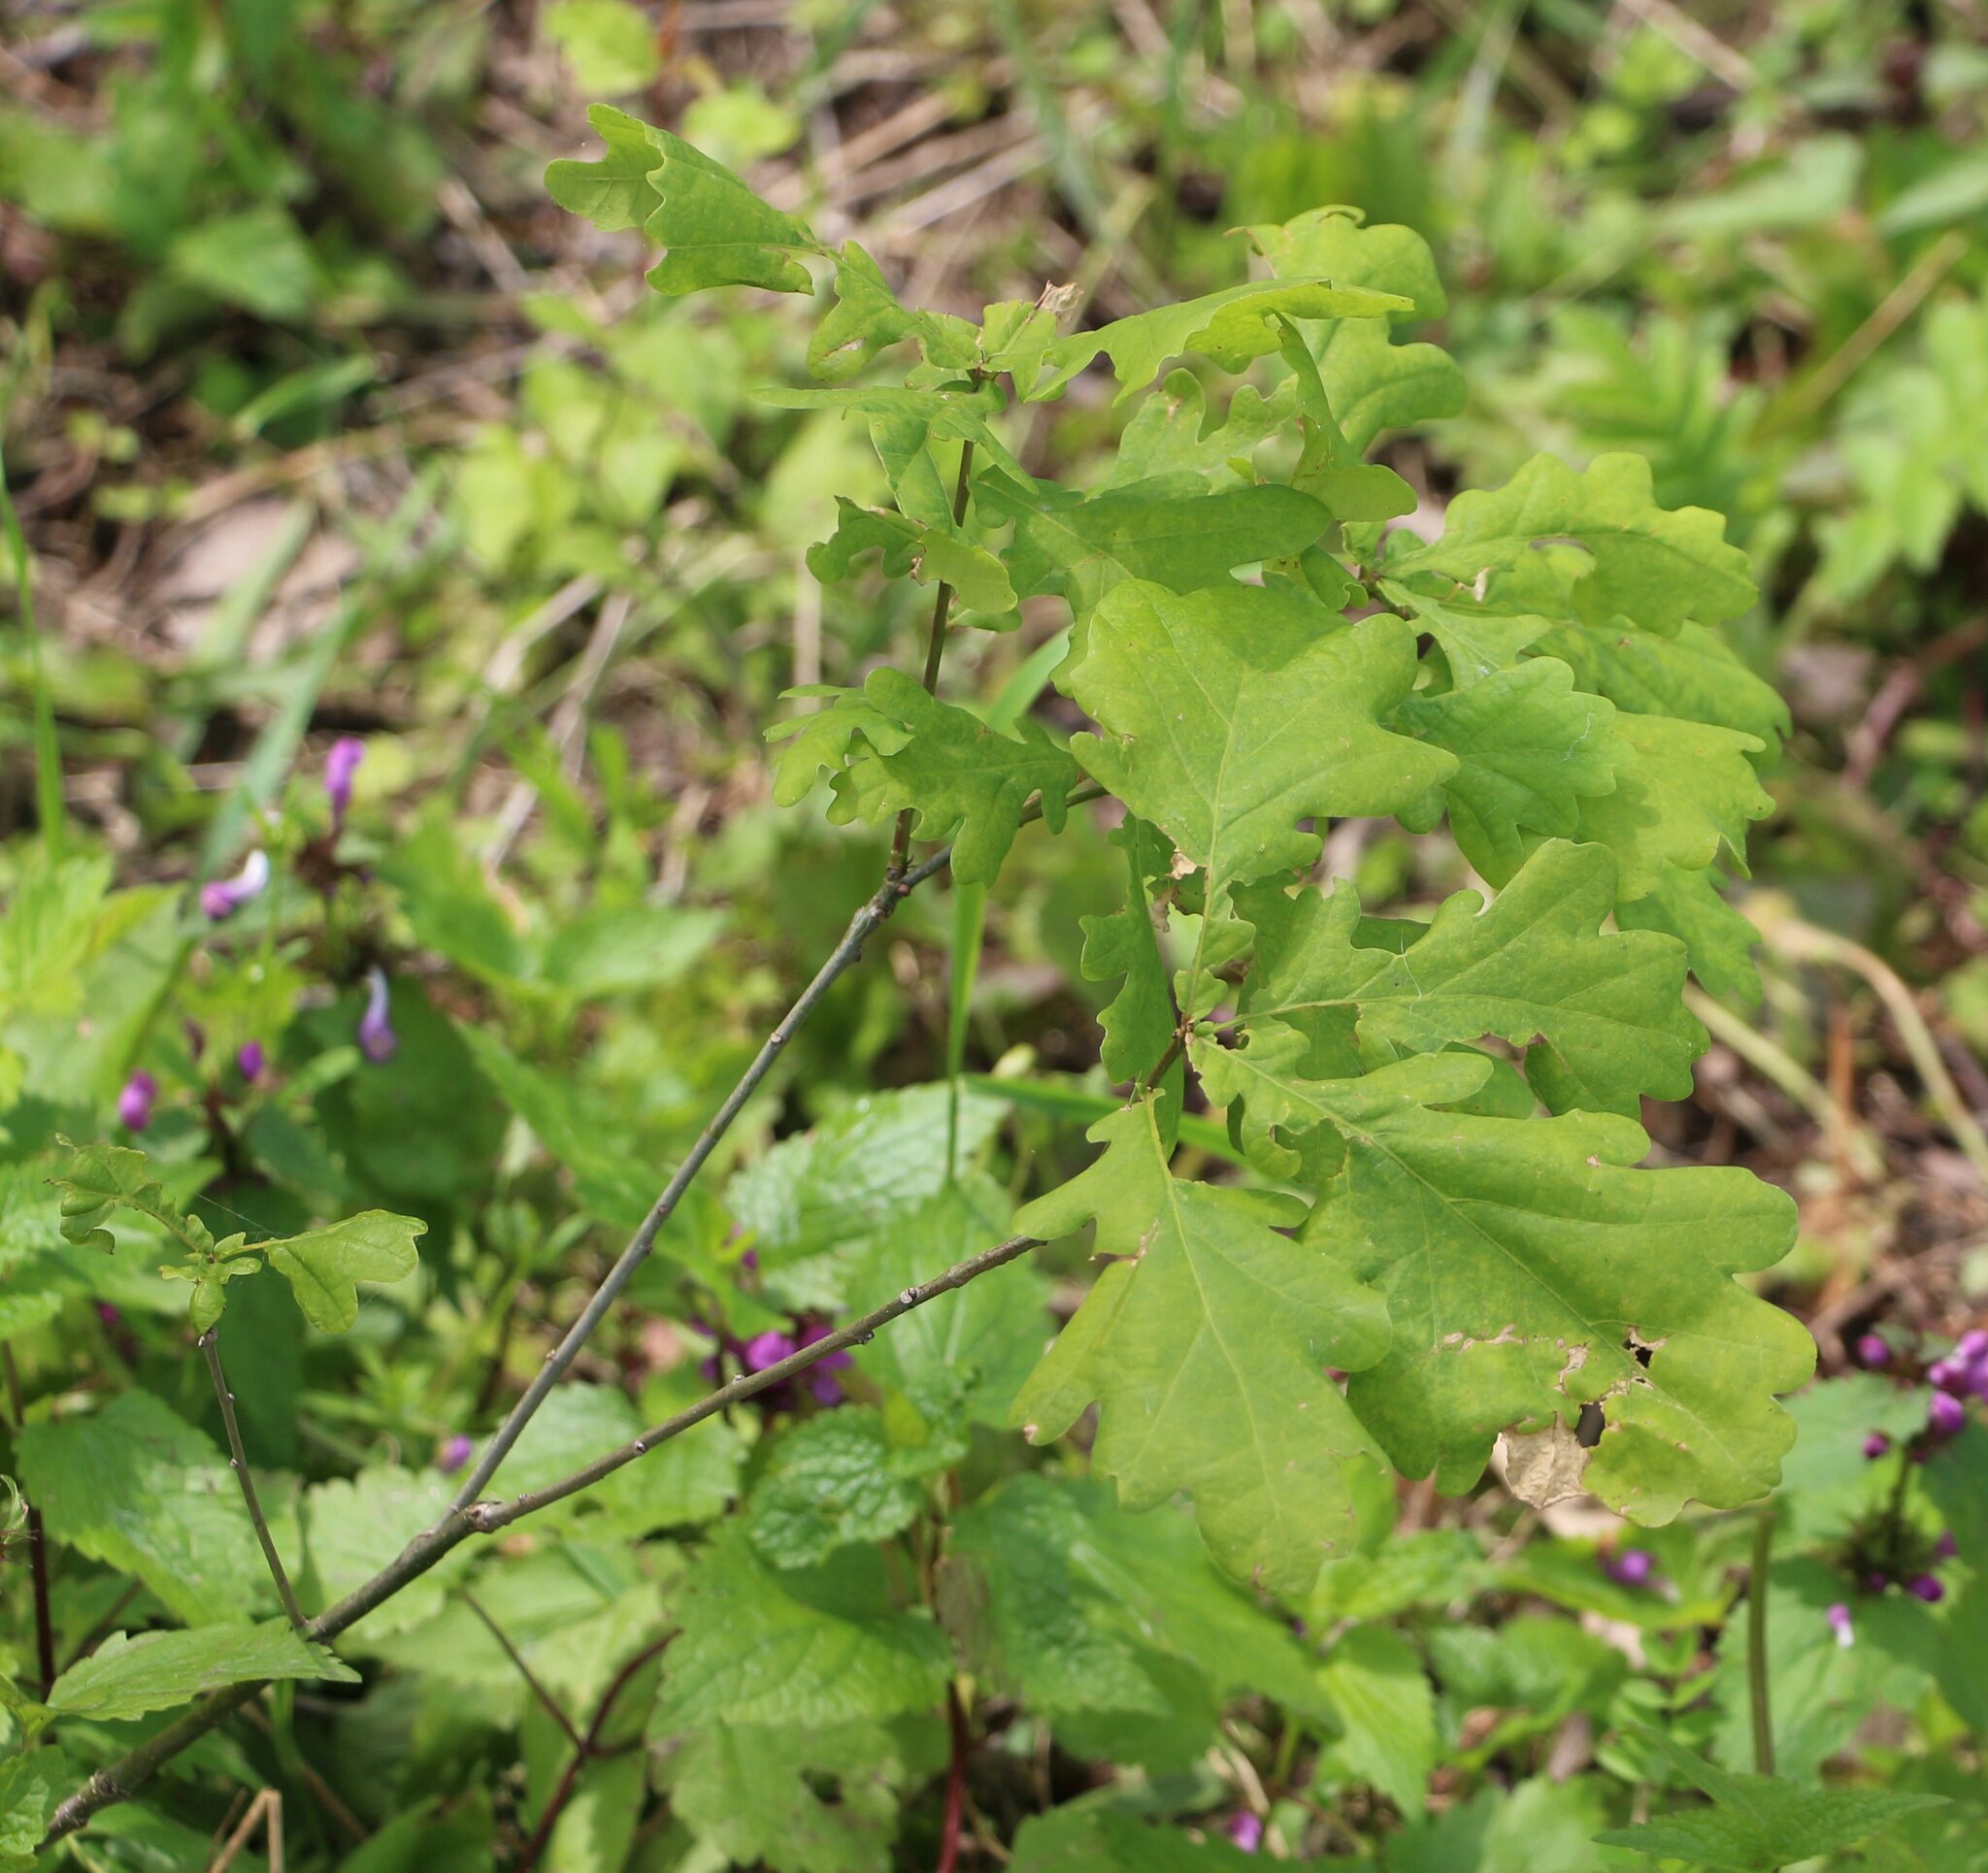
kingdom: Plantae
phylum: Tracheophyta
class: Magnoliopsida
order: Fagales
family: Fagaceae
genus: Quercus
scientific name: Quercus robur
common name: Pedunculate oak
